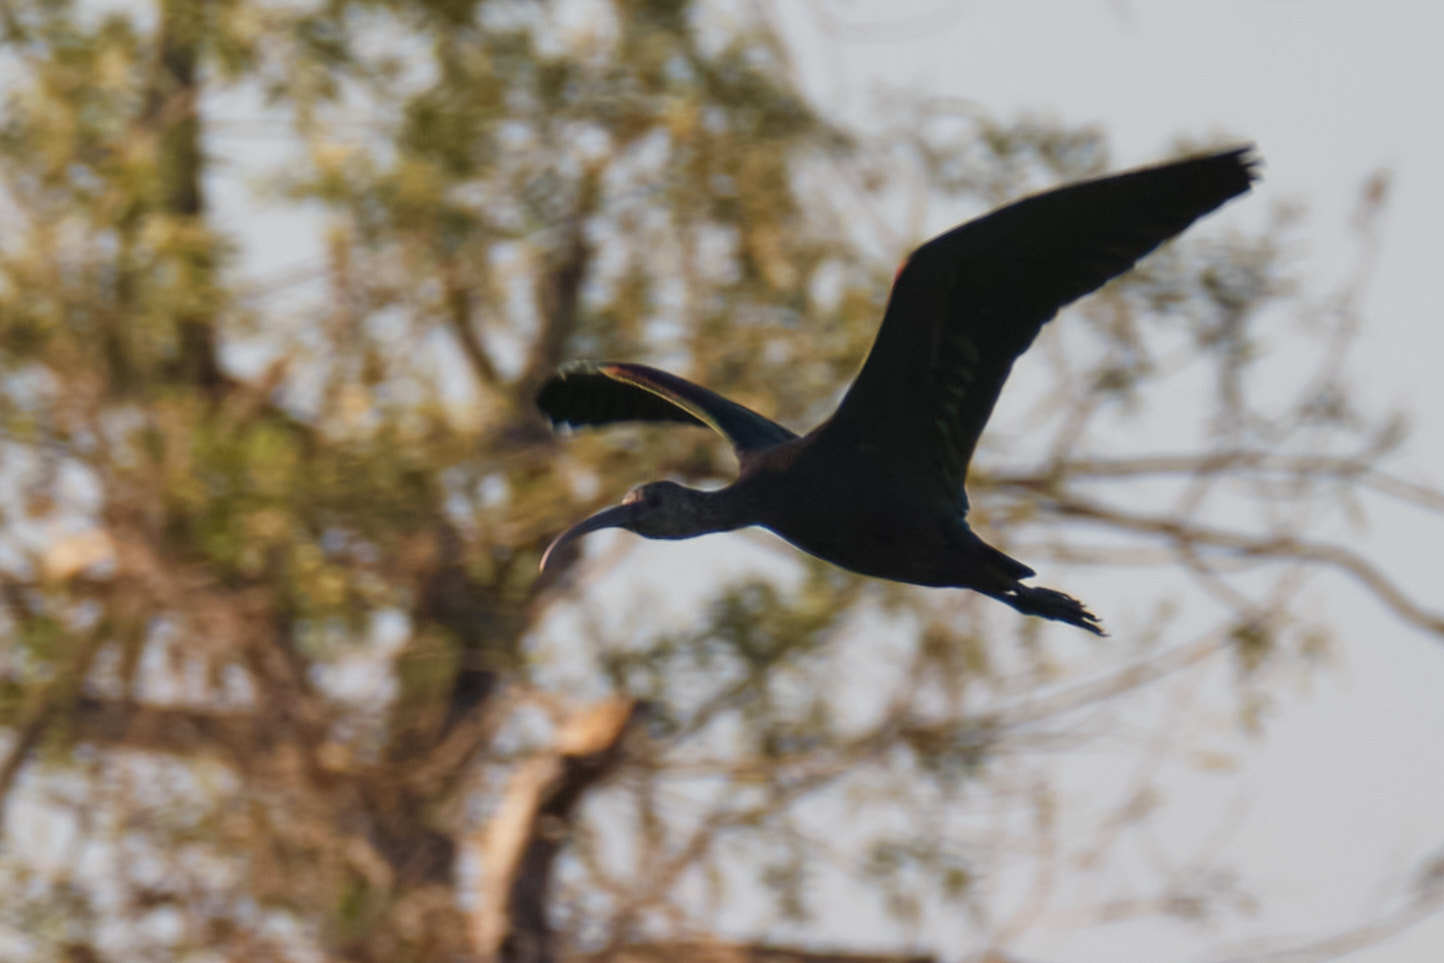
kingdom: Animalia
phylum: Chordata
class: Aves
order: Pelecaniformes
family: Threskiornithidae
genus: Plegadis
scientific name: Plegadis chihi
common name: White-faced ibis
